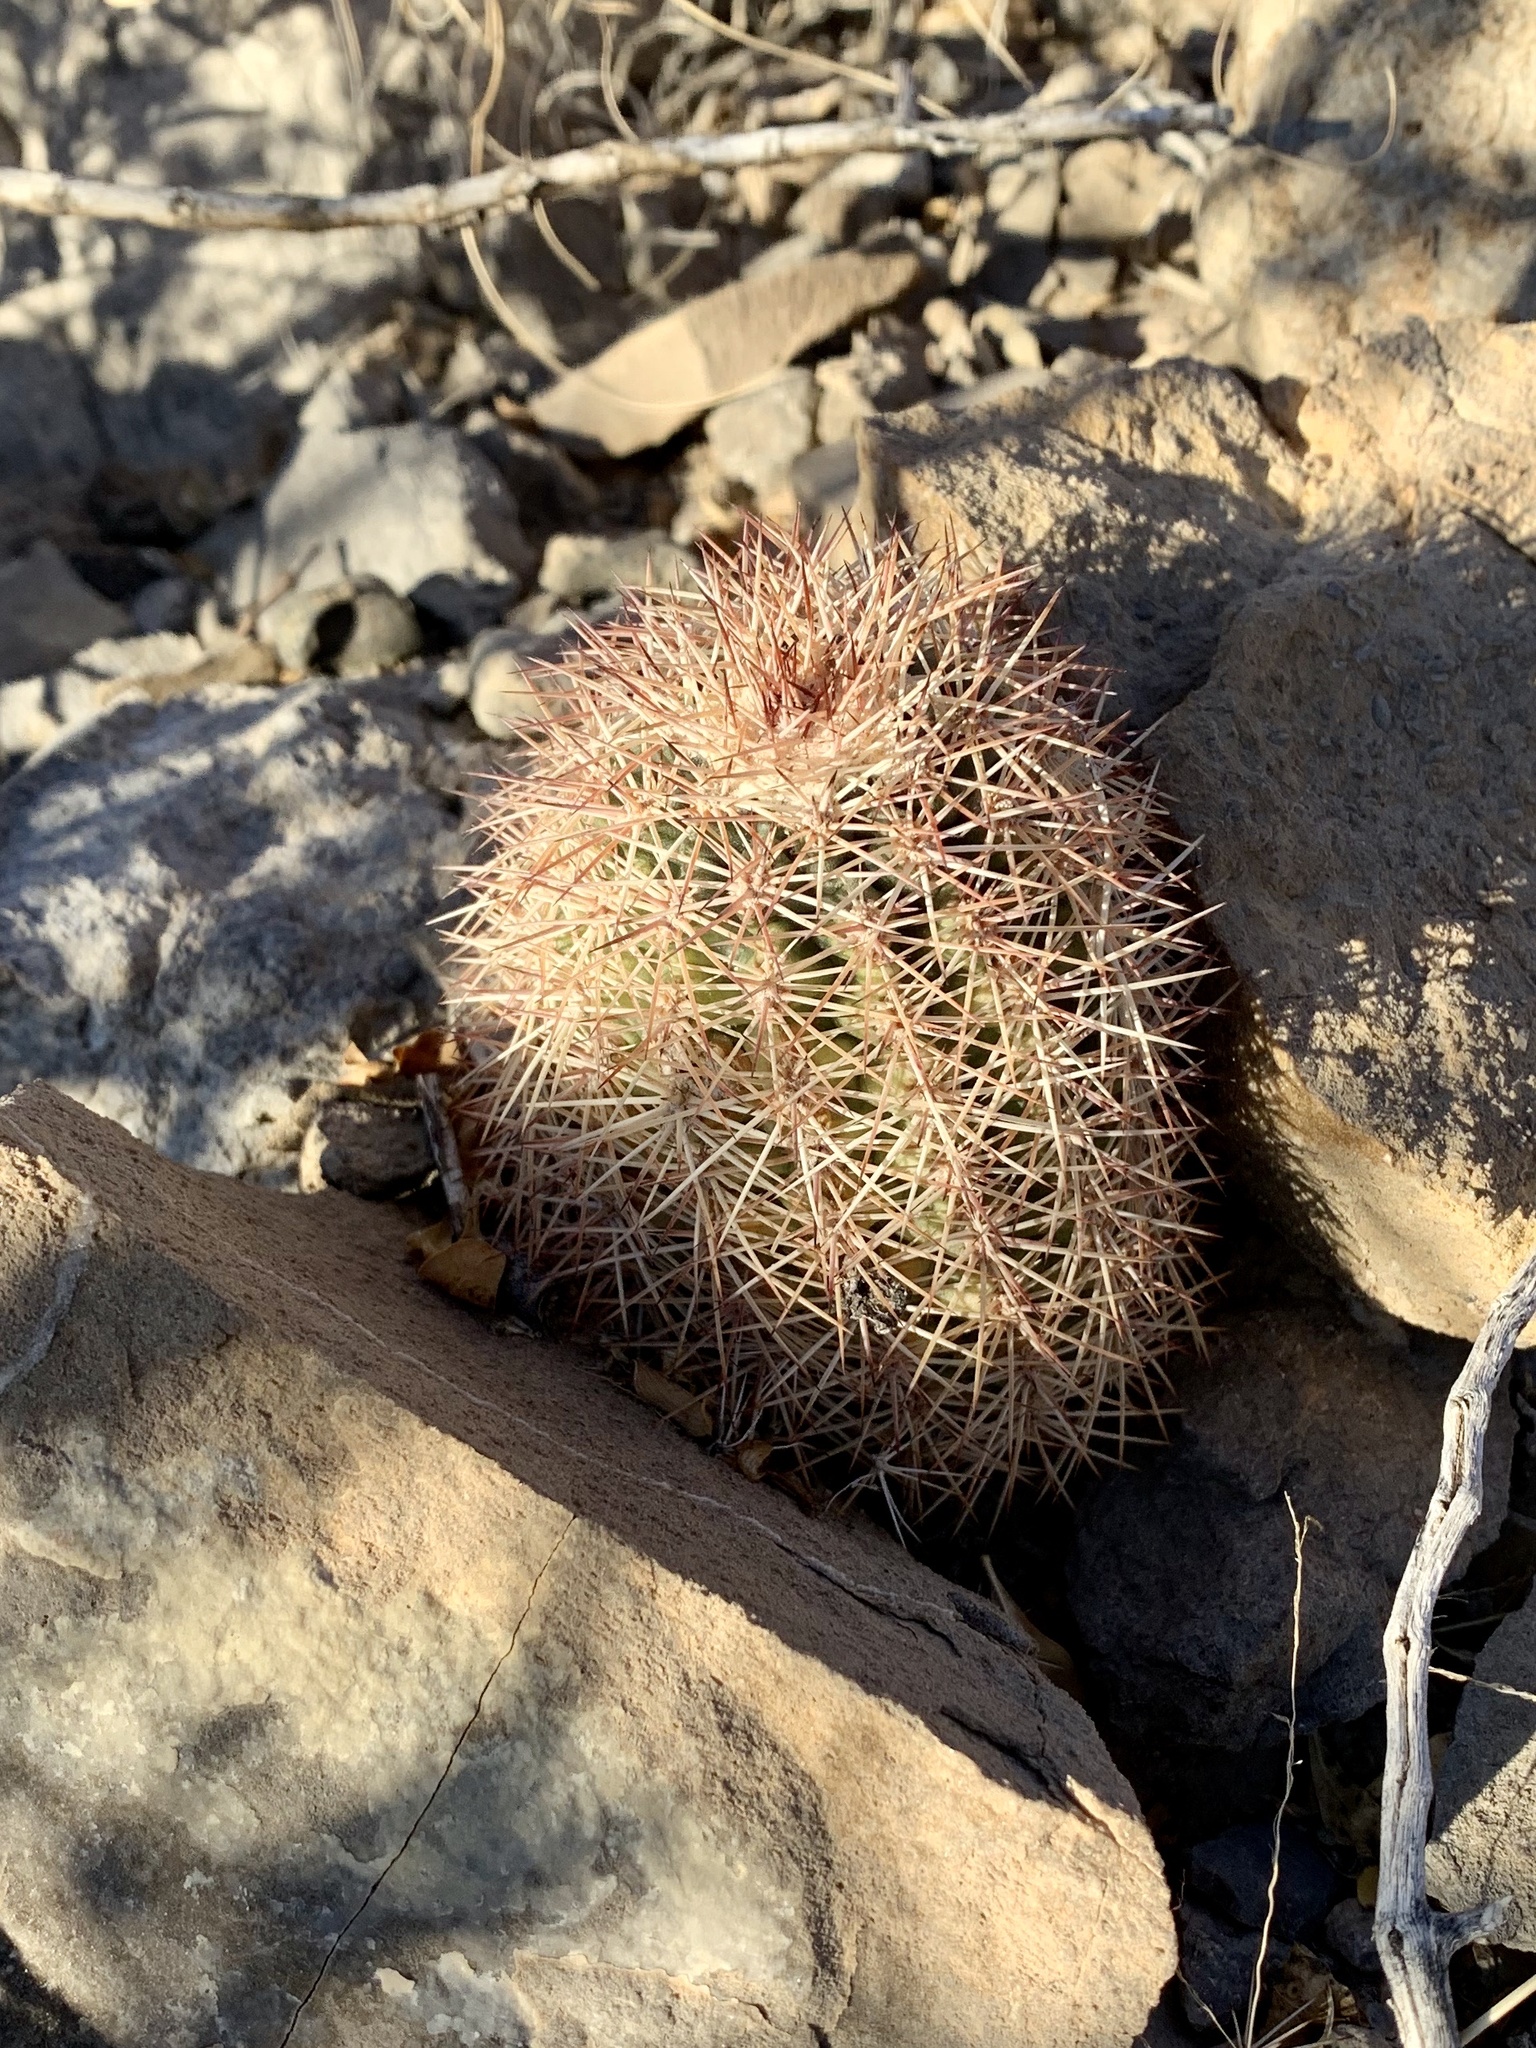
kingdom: Plantae
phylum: Tracheophyta
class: Magnoliopsida
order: Caryophyllales
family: Cactaceae
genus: Echinocereus
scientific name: Echinocereus dasyacanthus
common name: Spiny hedgehog cactus
